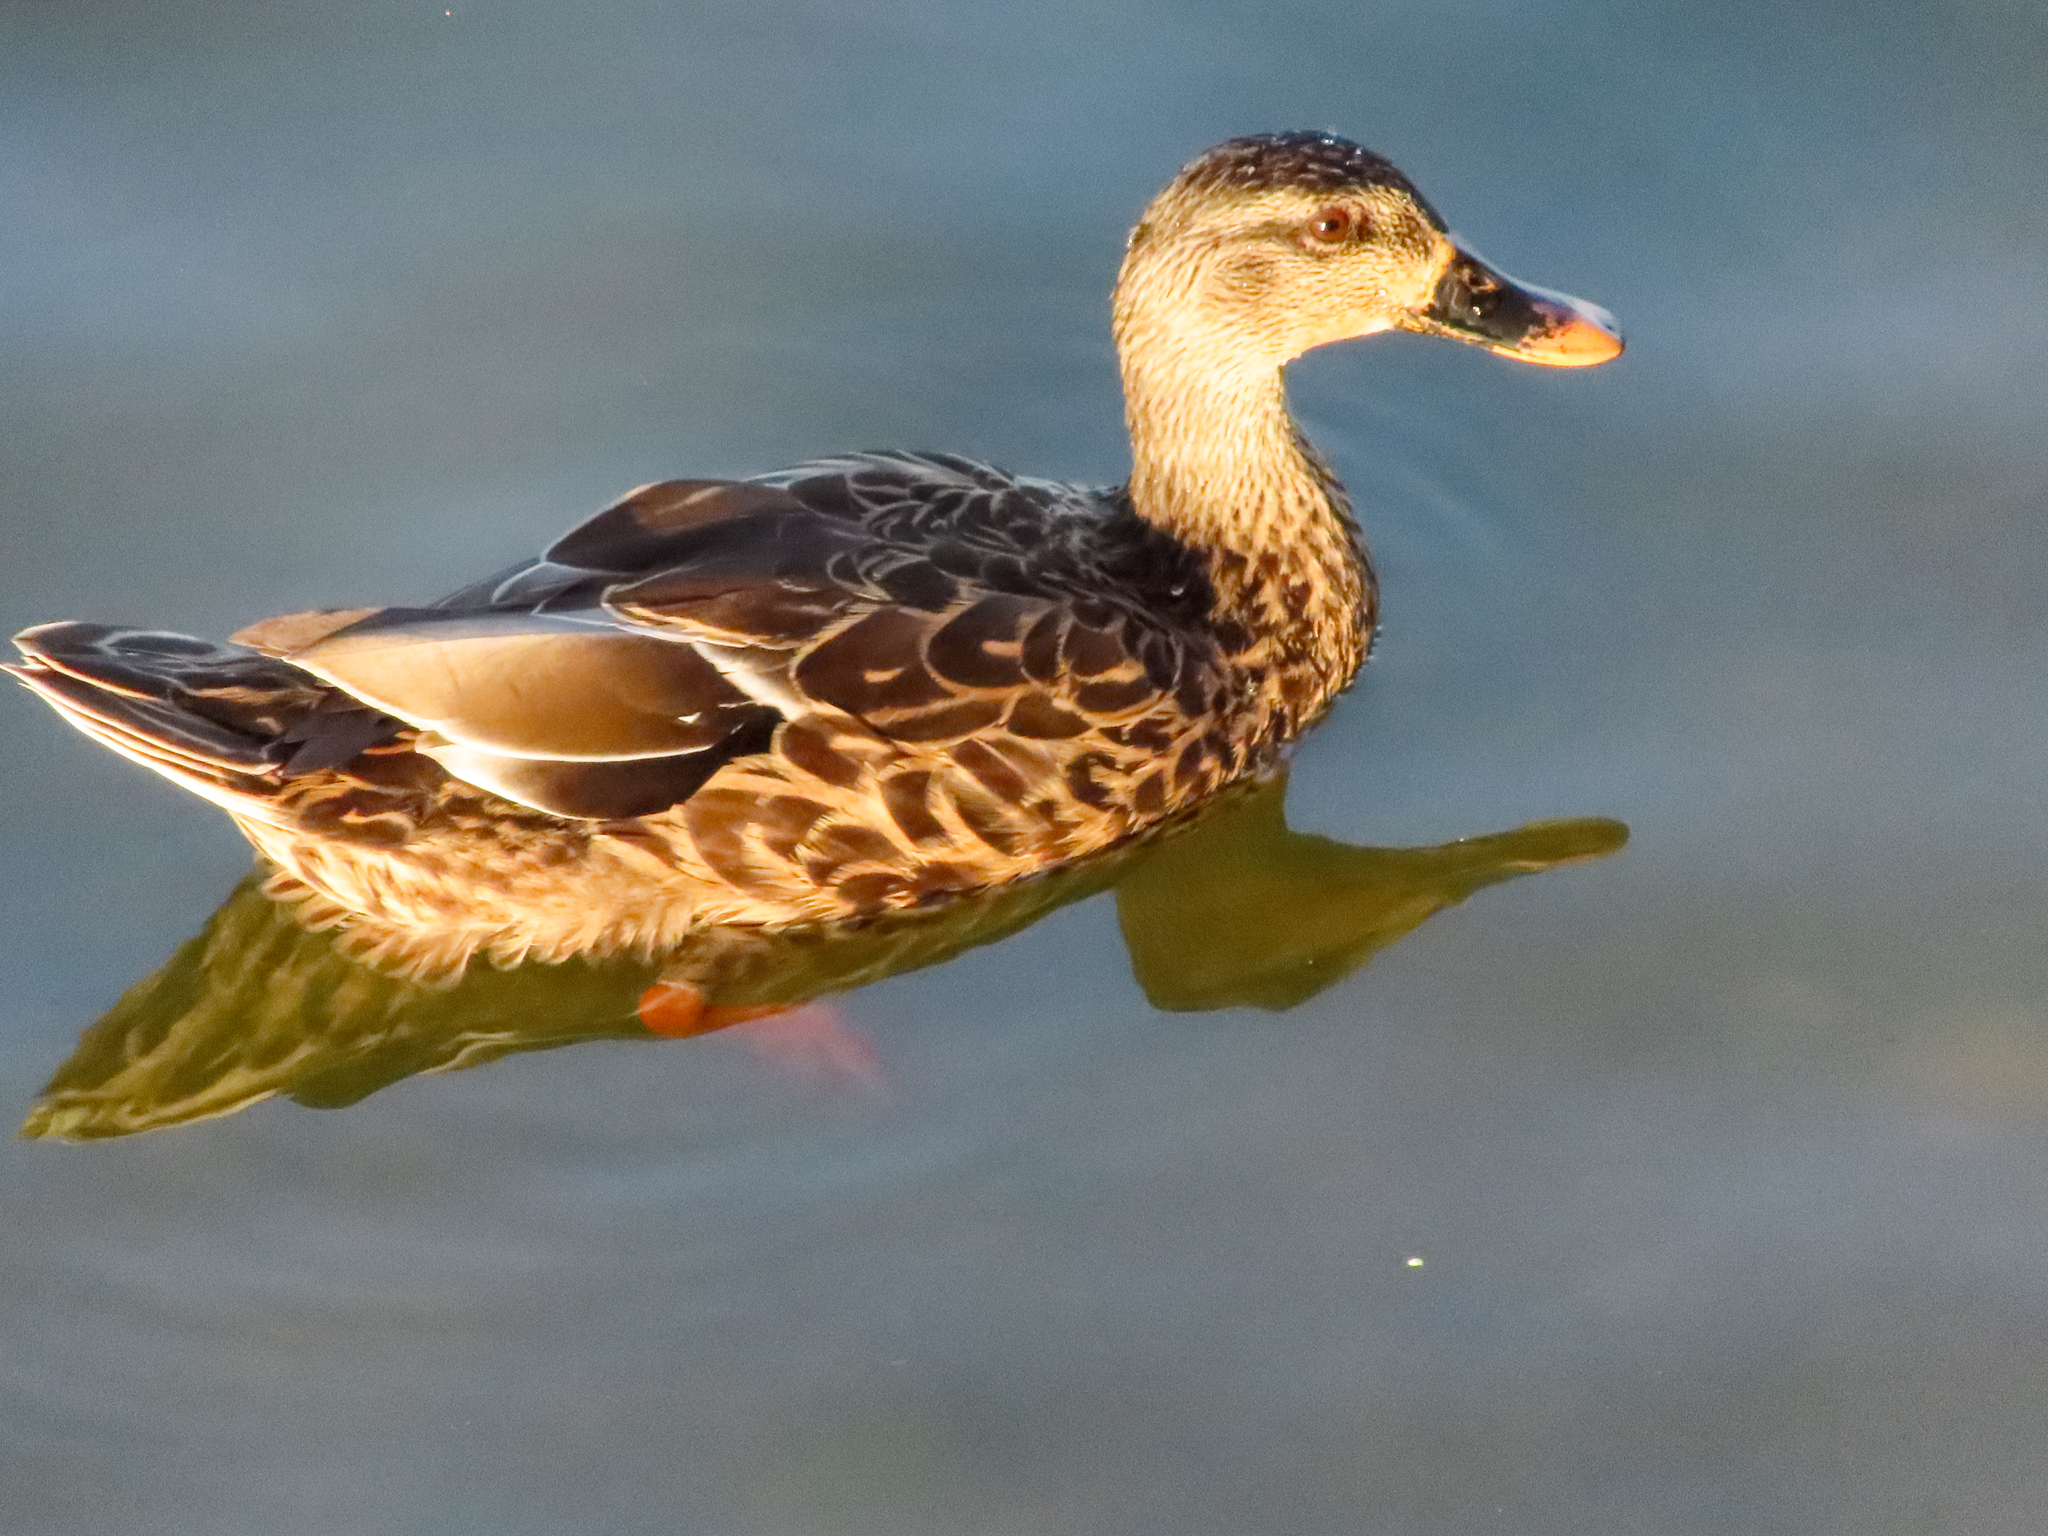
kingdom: Animalia
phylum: Chordata
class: Aves
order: Anseriformes
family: Anatidae
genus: Anas
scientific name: Anas platyrhynchos
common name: Mallard
